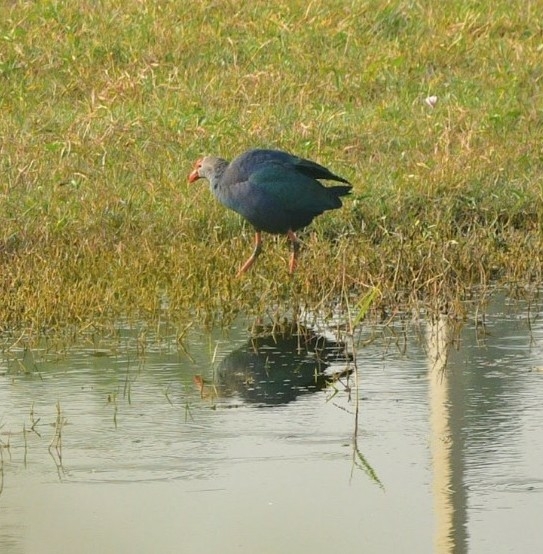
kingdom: Animalia
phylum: Chordata
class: Aves
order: Gruiformes
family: Rallidae
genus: Porphyrio
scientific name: Porphyrio porphyrio
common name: Purple swamphen
